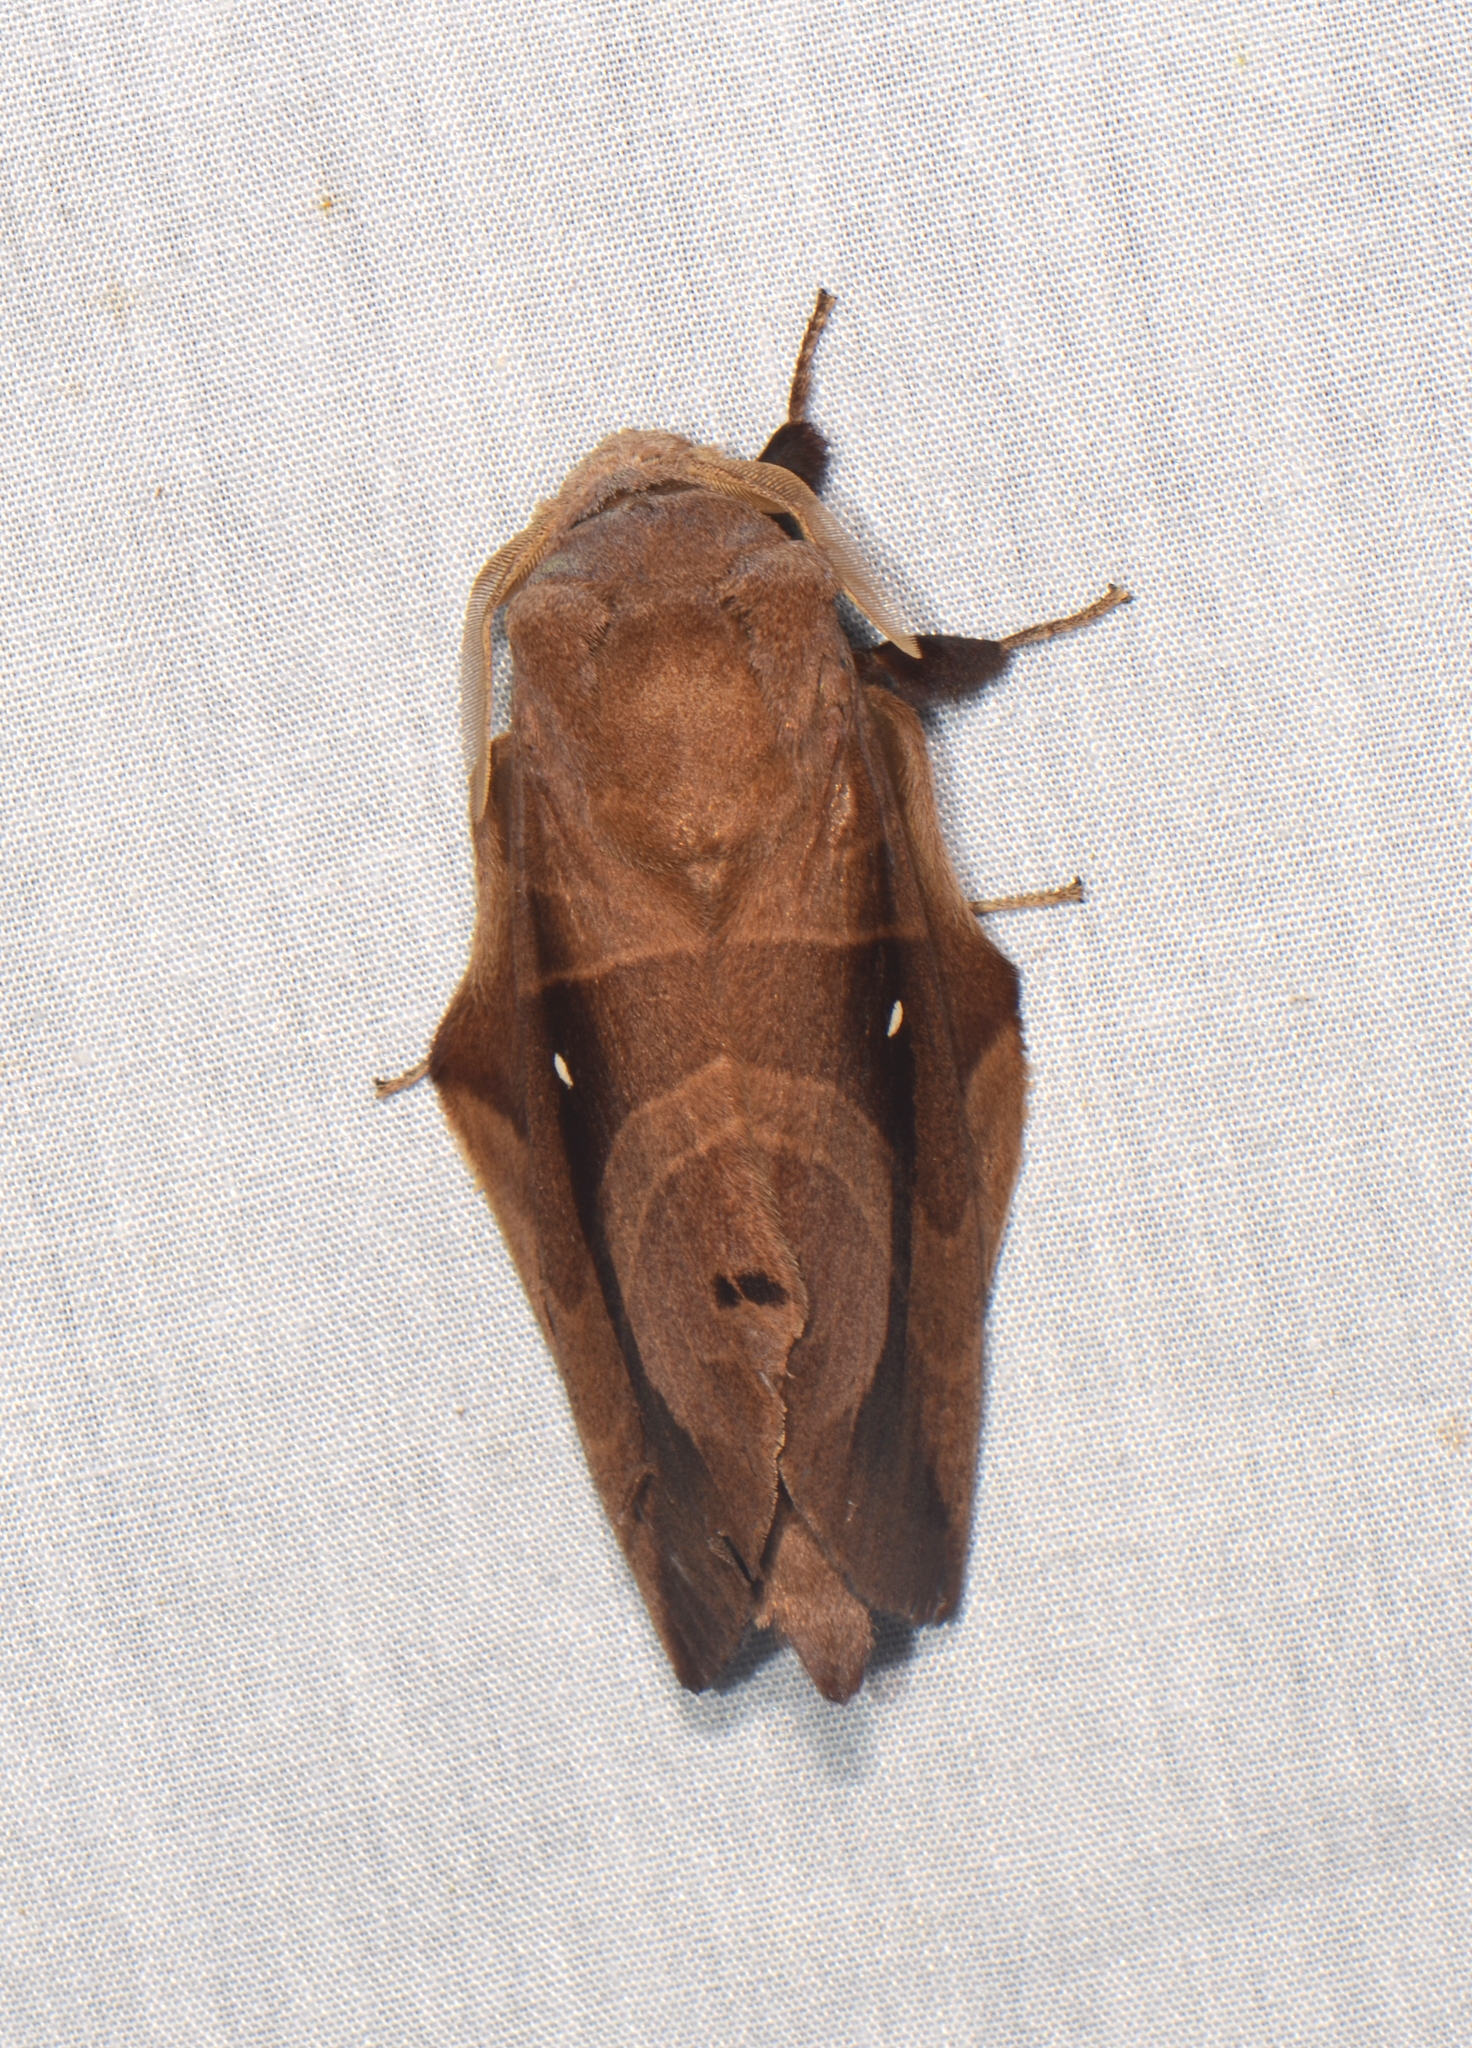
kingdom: Animalia
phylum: Arthropoda
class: Insecta
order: Lepidoptera
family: Lasiocampidae
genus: Lebeda
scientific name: Lebeda nobilis
